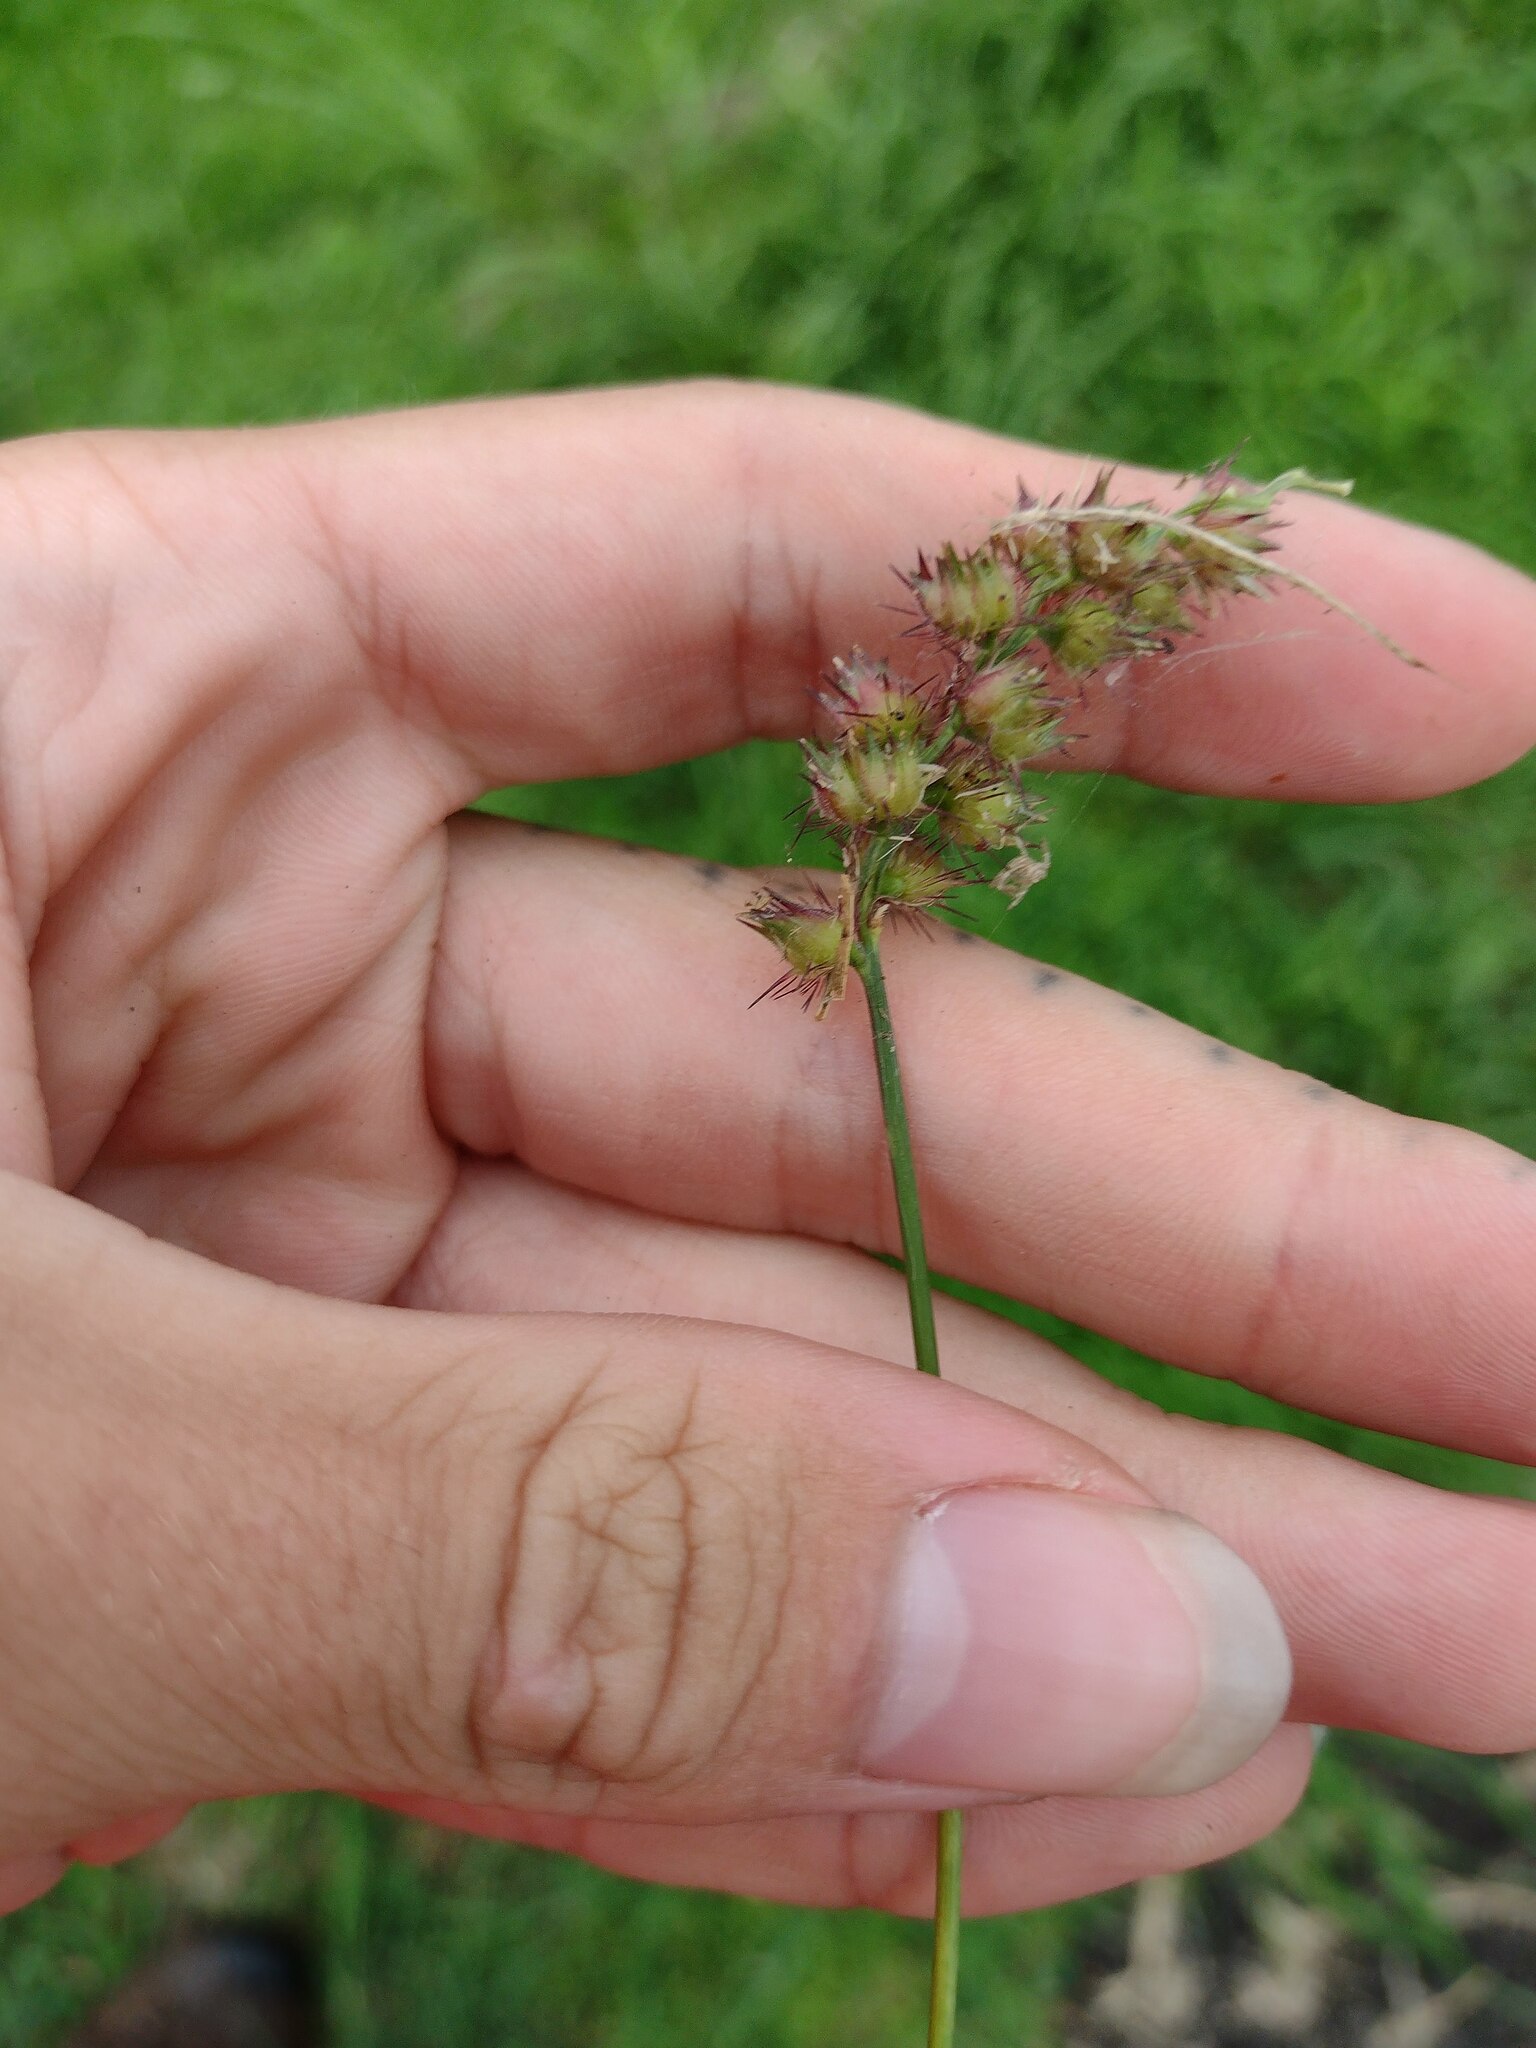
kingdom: Plantae
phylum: Tracheophyta
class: Liliopsida
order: Poales
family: Poaceae
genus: Cenchrus
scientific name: Cenchrus echinatus
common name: Southern sandbur
